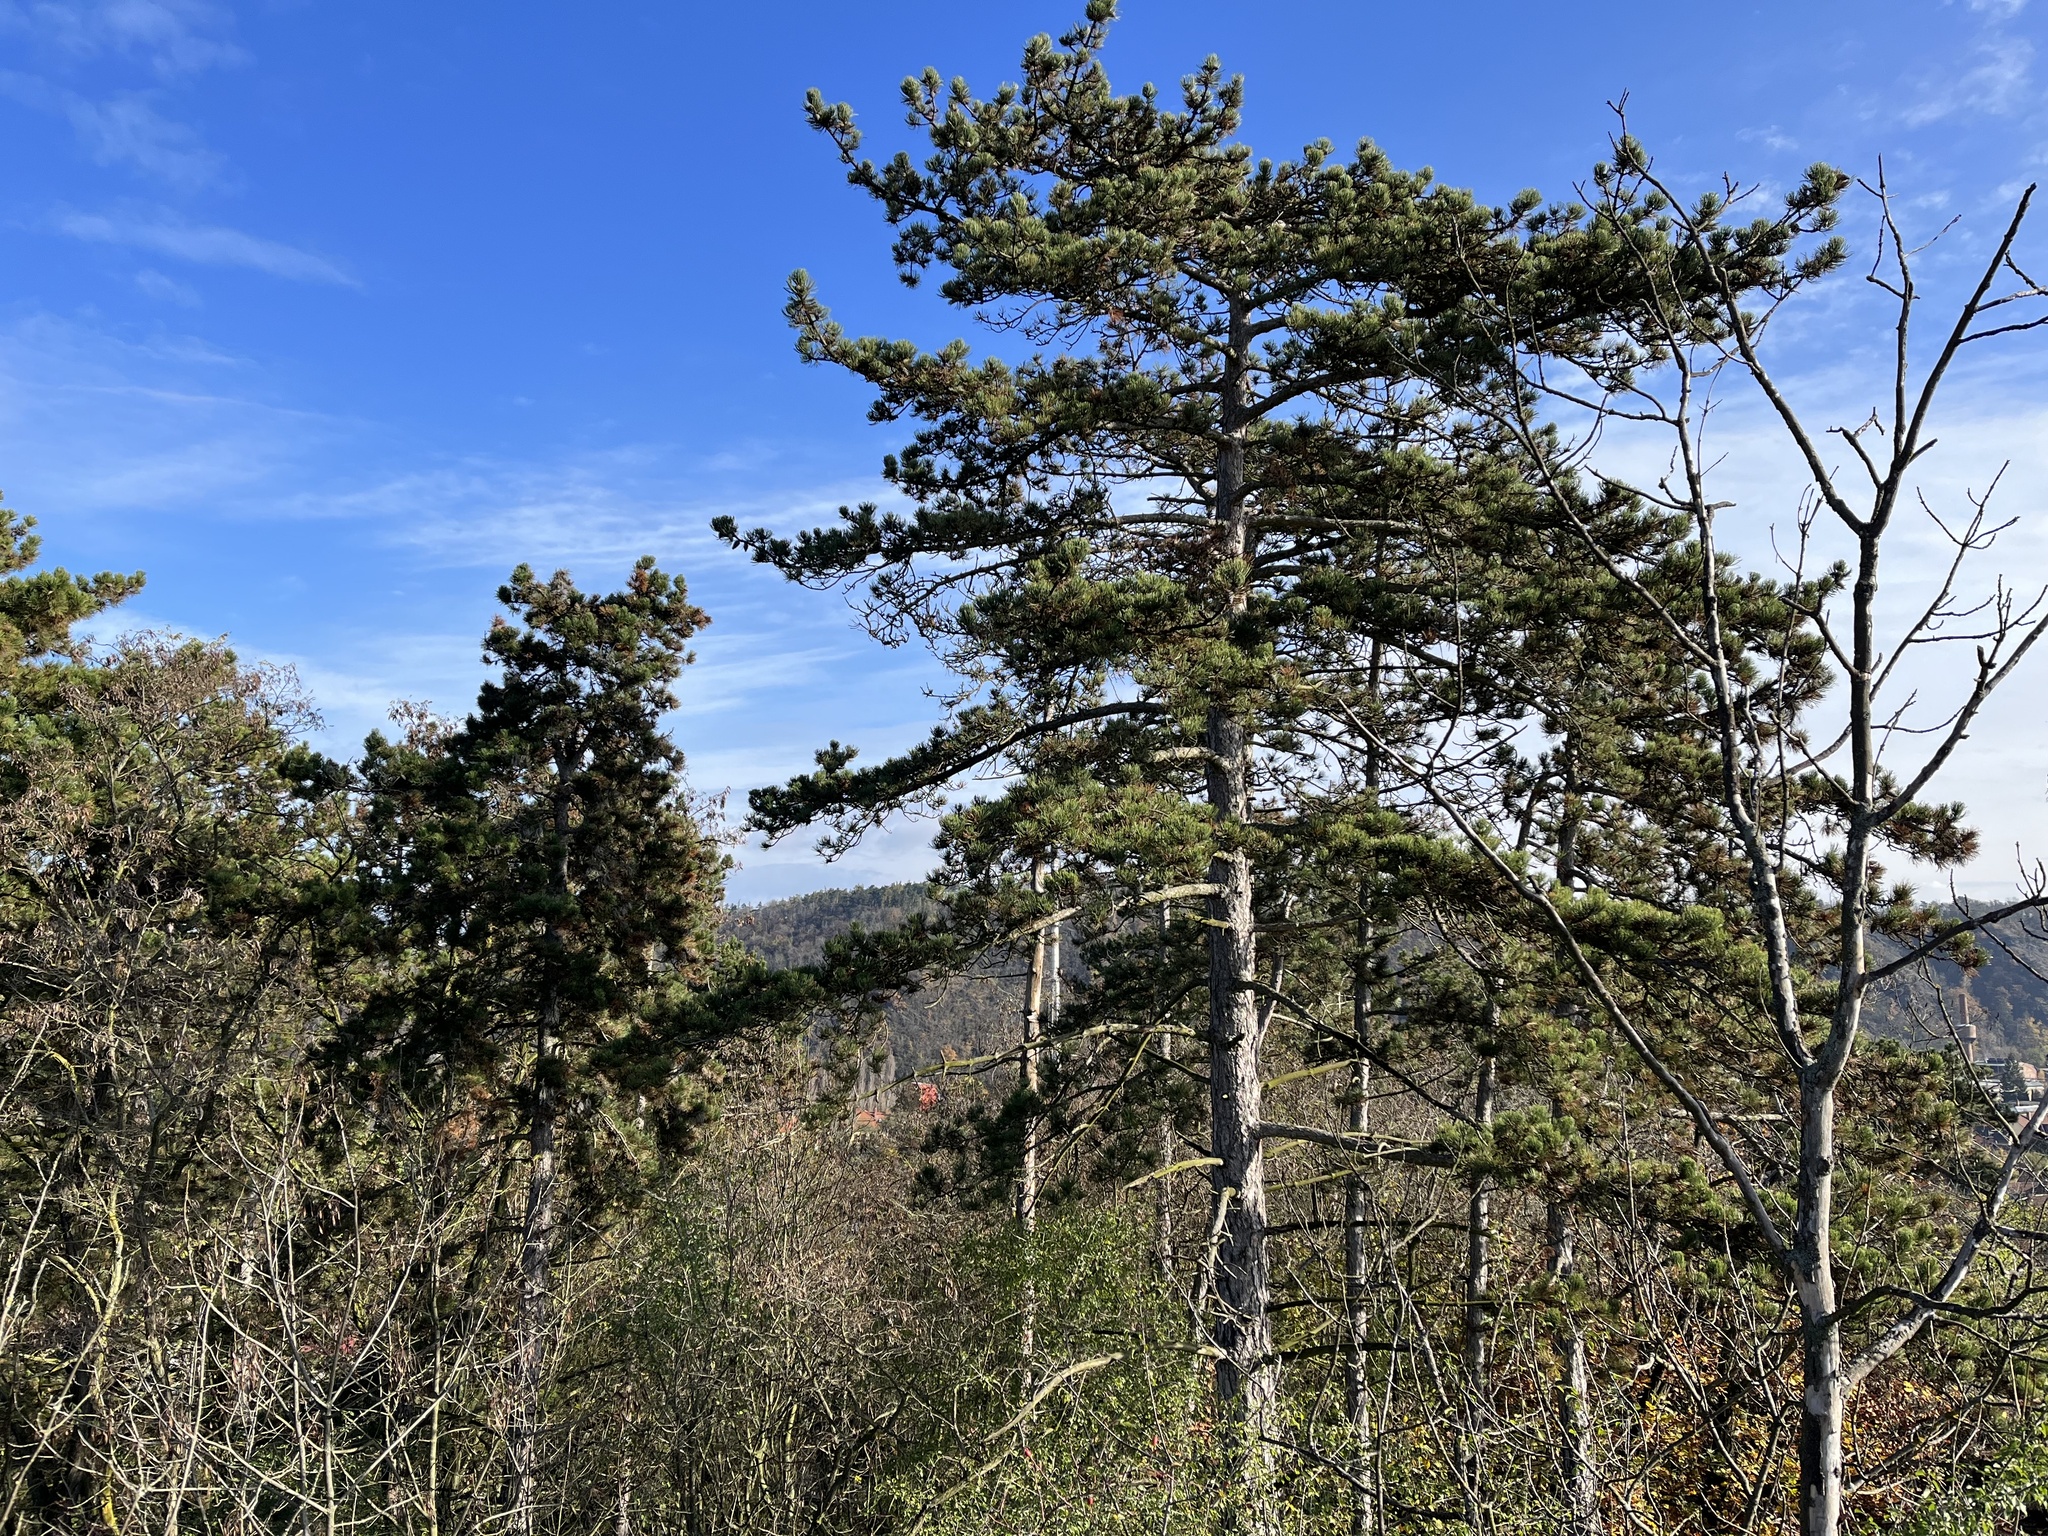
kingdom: Plantae
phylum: Tracheophyta
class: Pinopsida
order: Pinales
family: Pinaceae
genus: Pinus
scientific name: Pinus nigra
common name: Austrian pine
